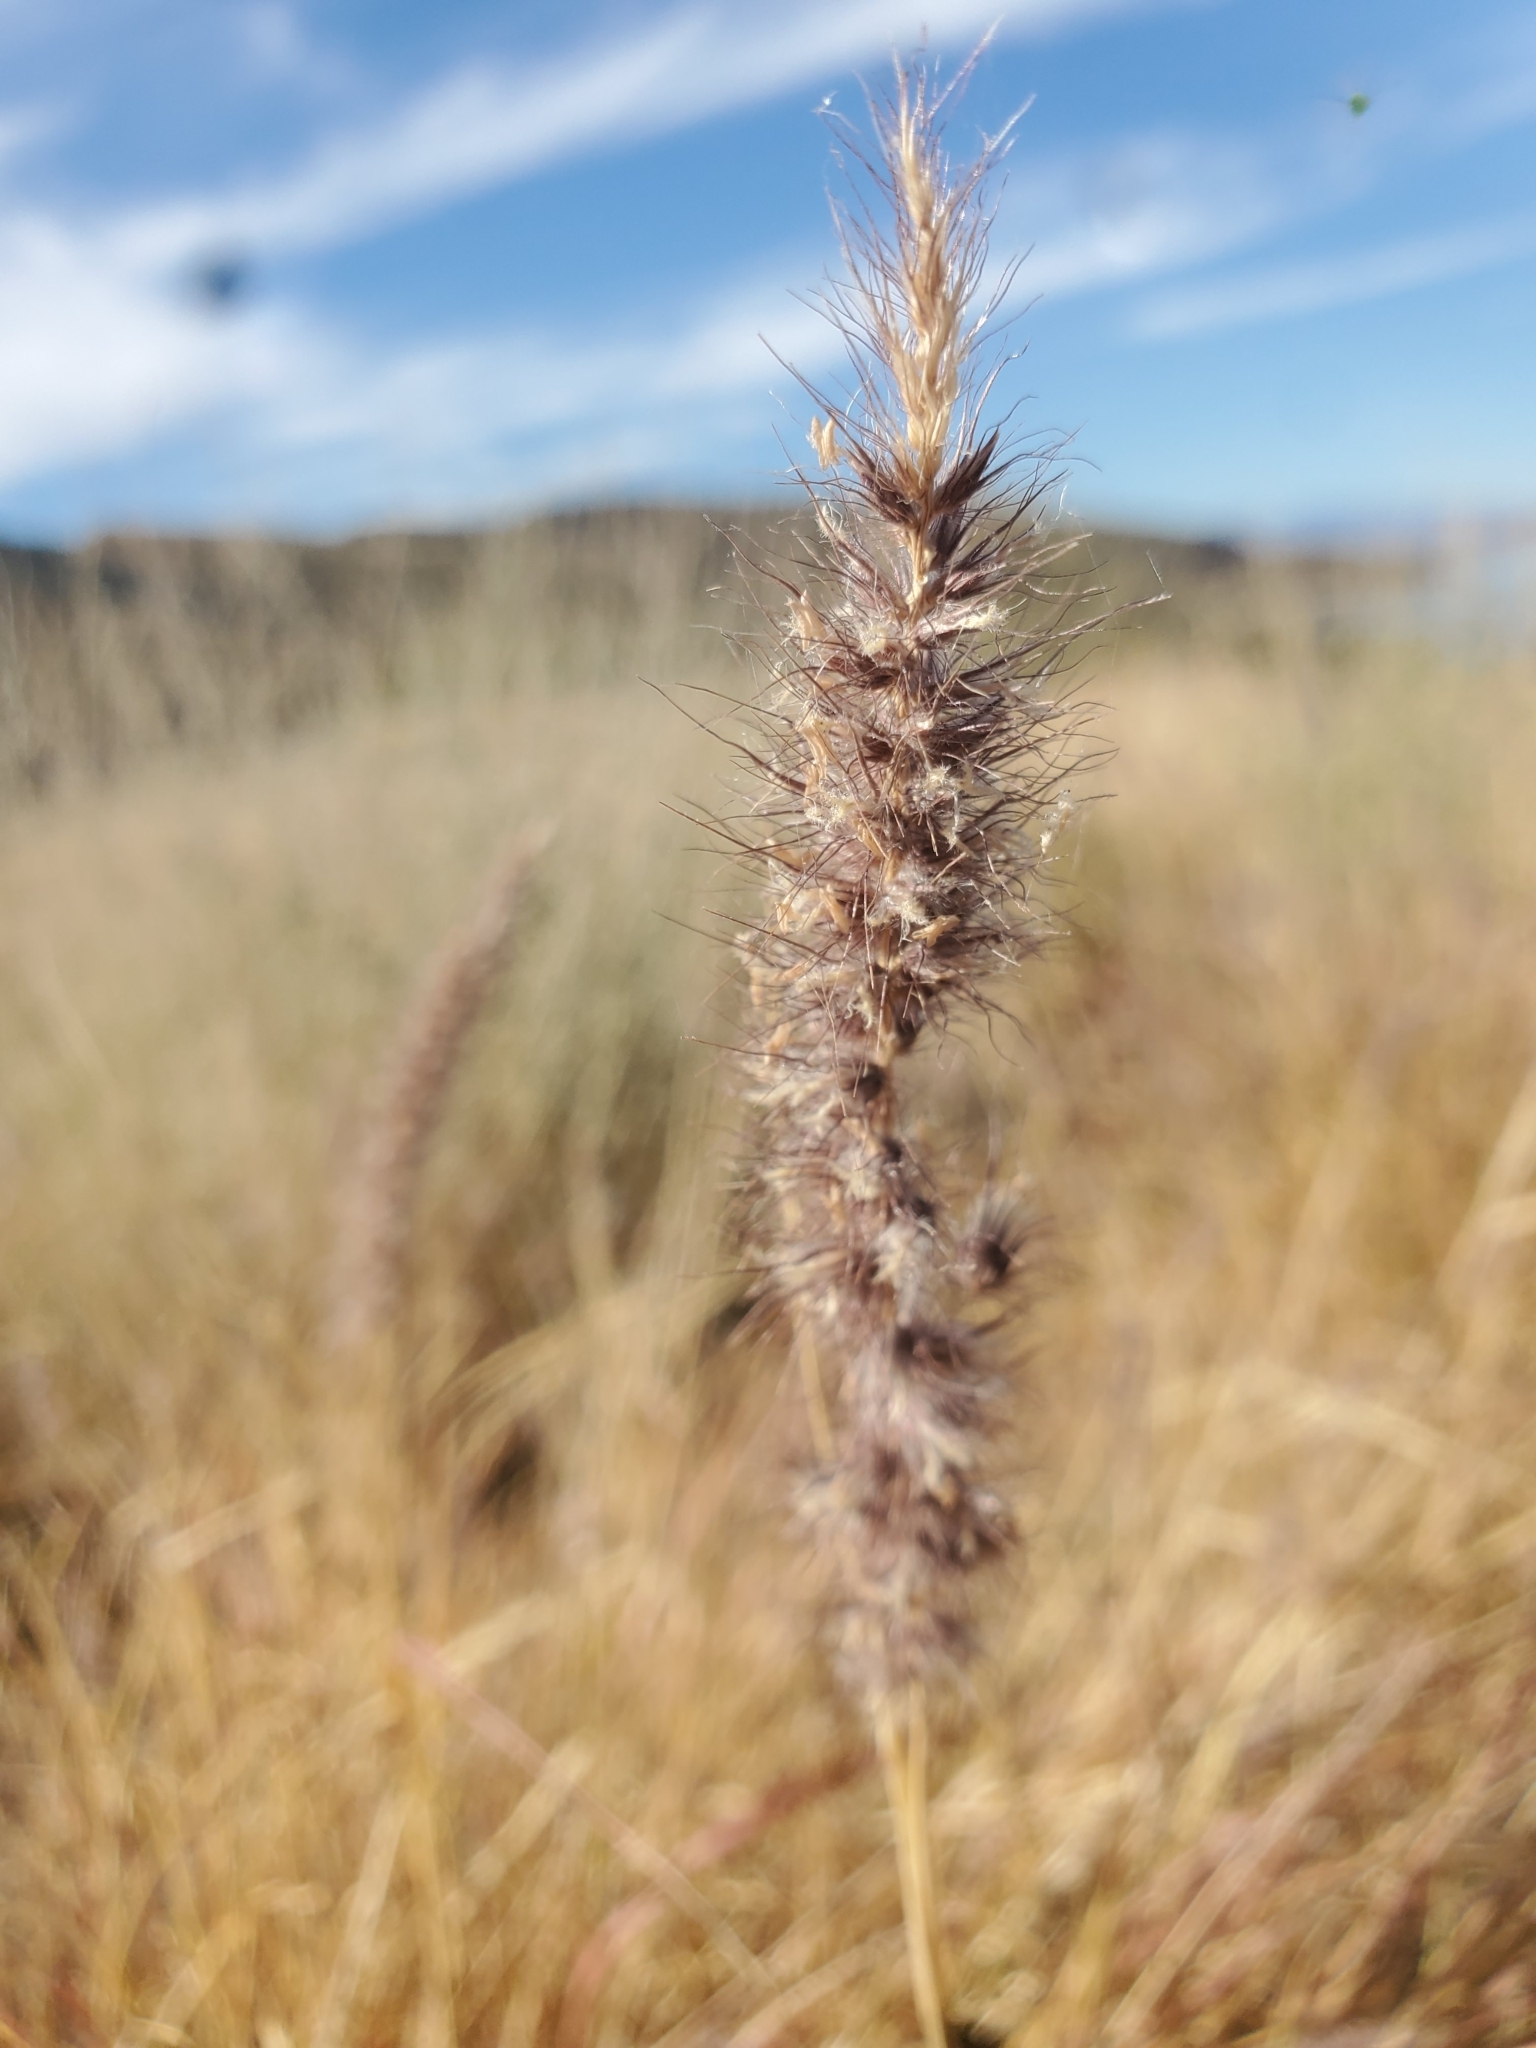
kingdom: Plantae
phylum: Tracheophyta
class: Liliopsida
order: Poales
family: Poaceae
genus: Cenchrus
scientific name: Cenchrus ciliaris
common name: Buffelgrass
